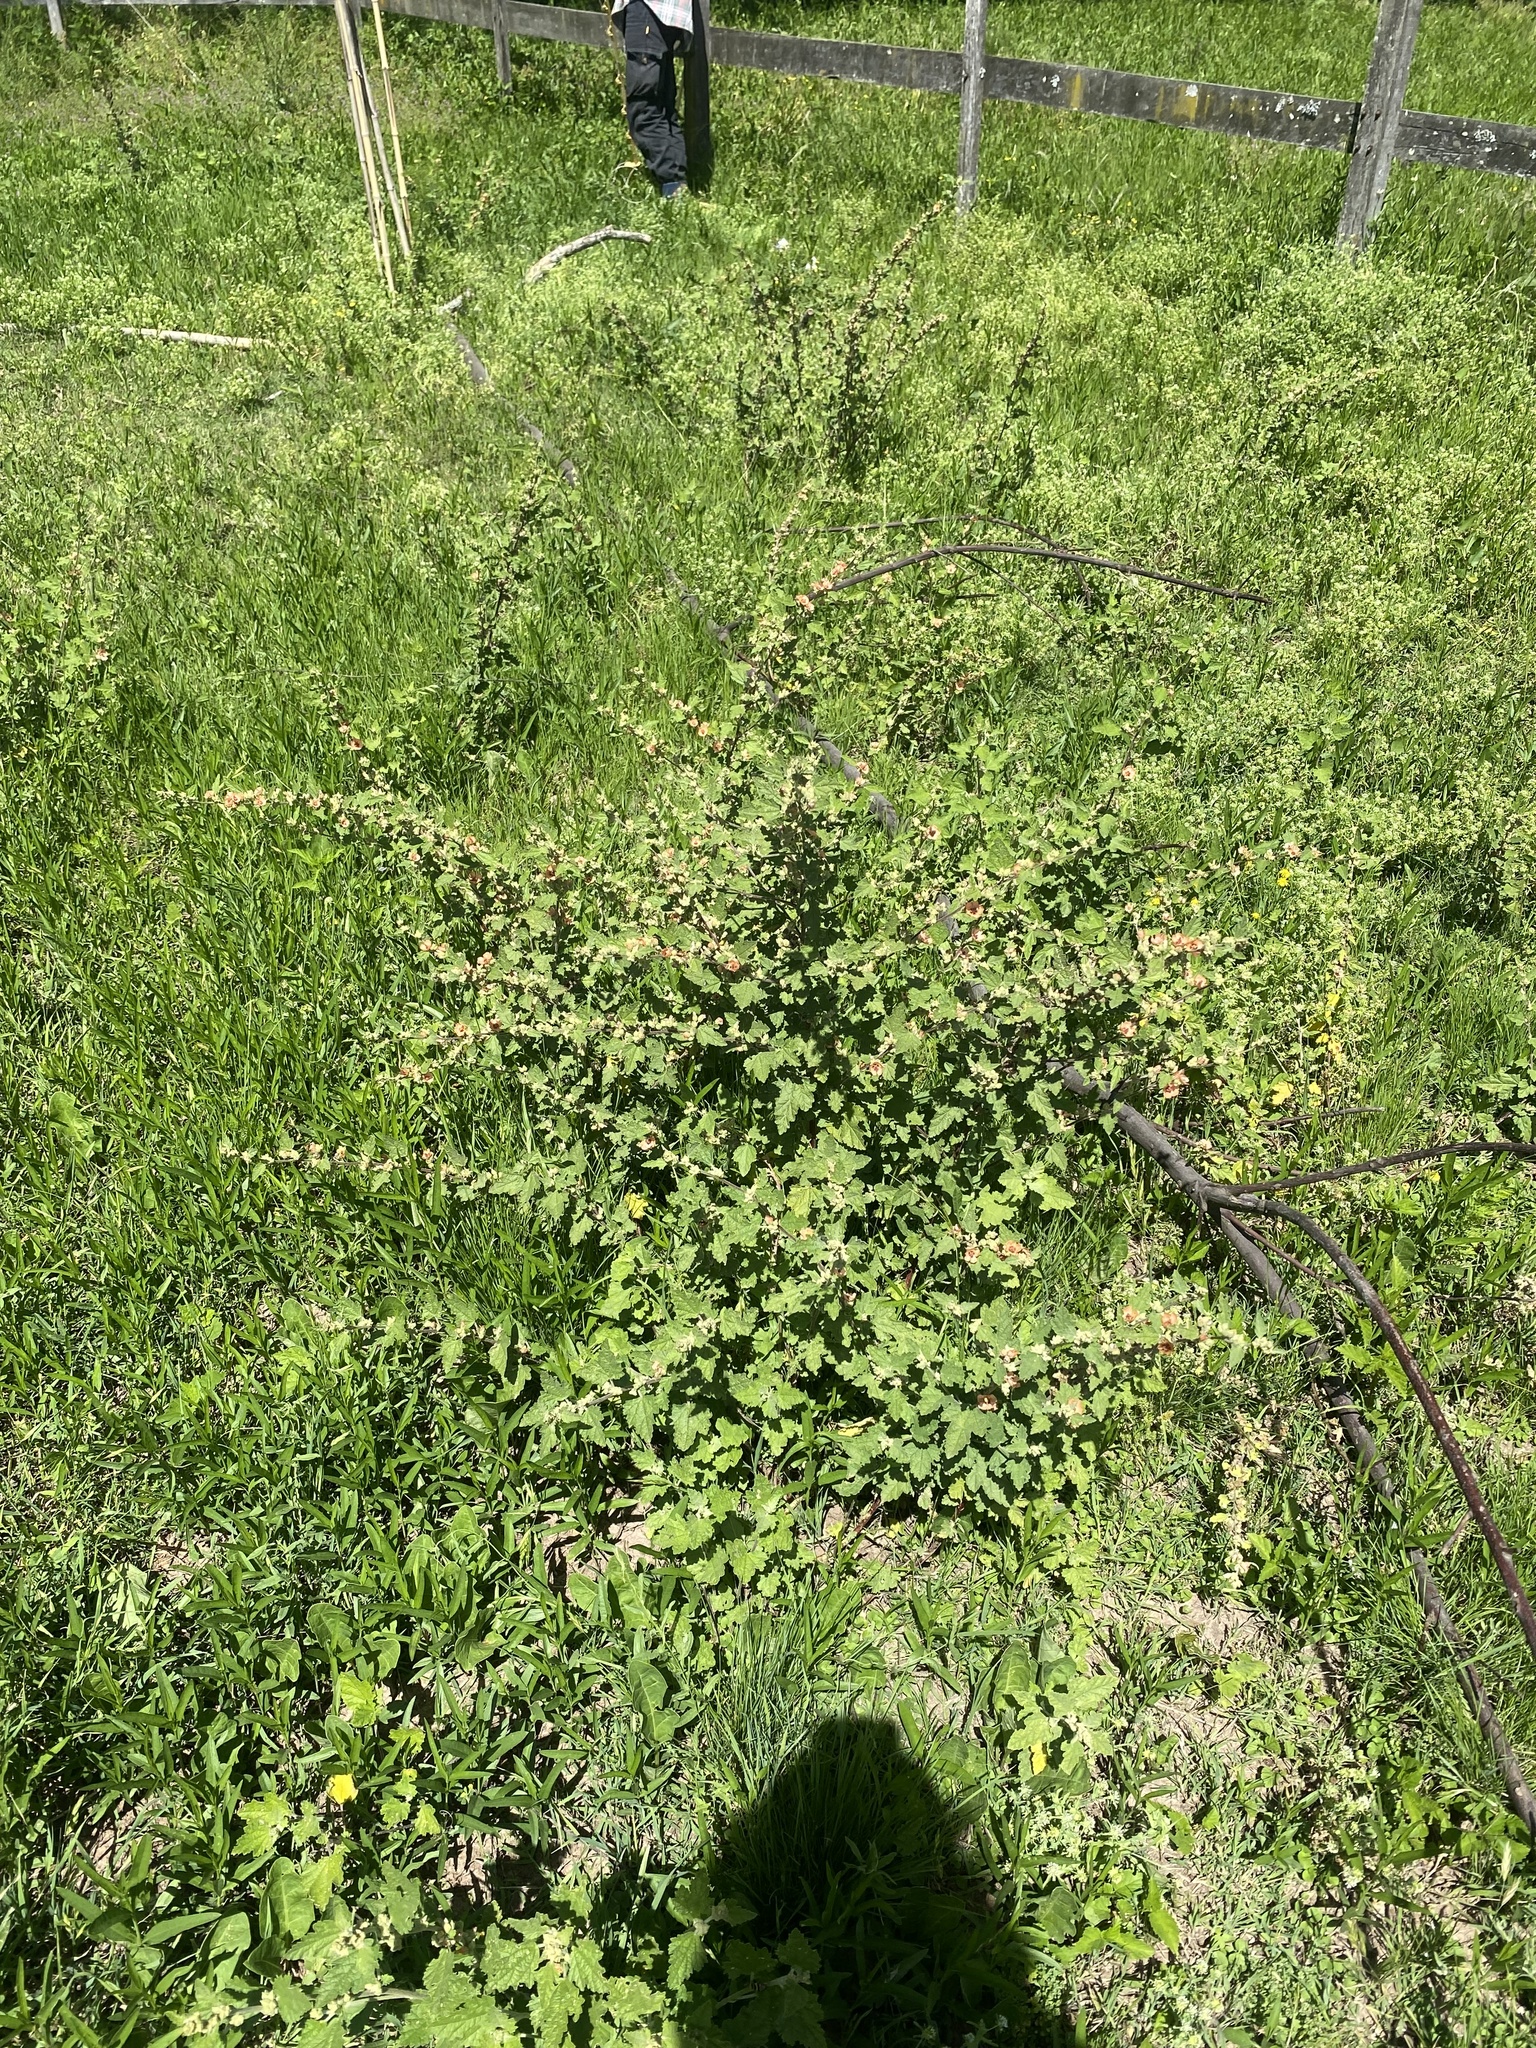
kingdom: Plantae
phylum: Tracheophyta
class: Magnoliopsida
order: Malvales
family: Malvaceae
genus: Sphaeralcea
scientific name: Sphaeralcea bonariensis
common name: Latin globemallow
